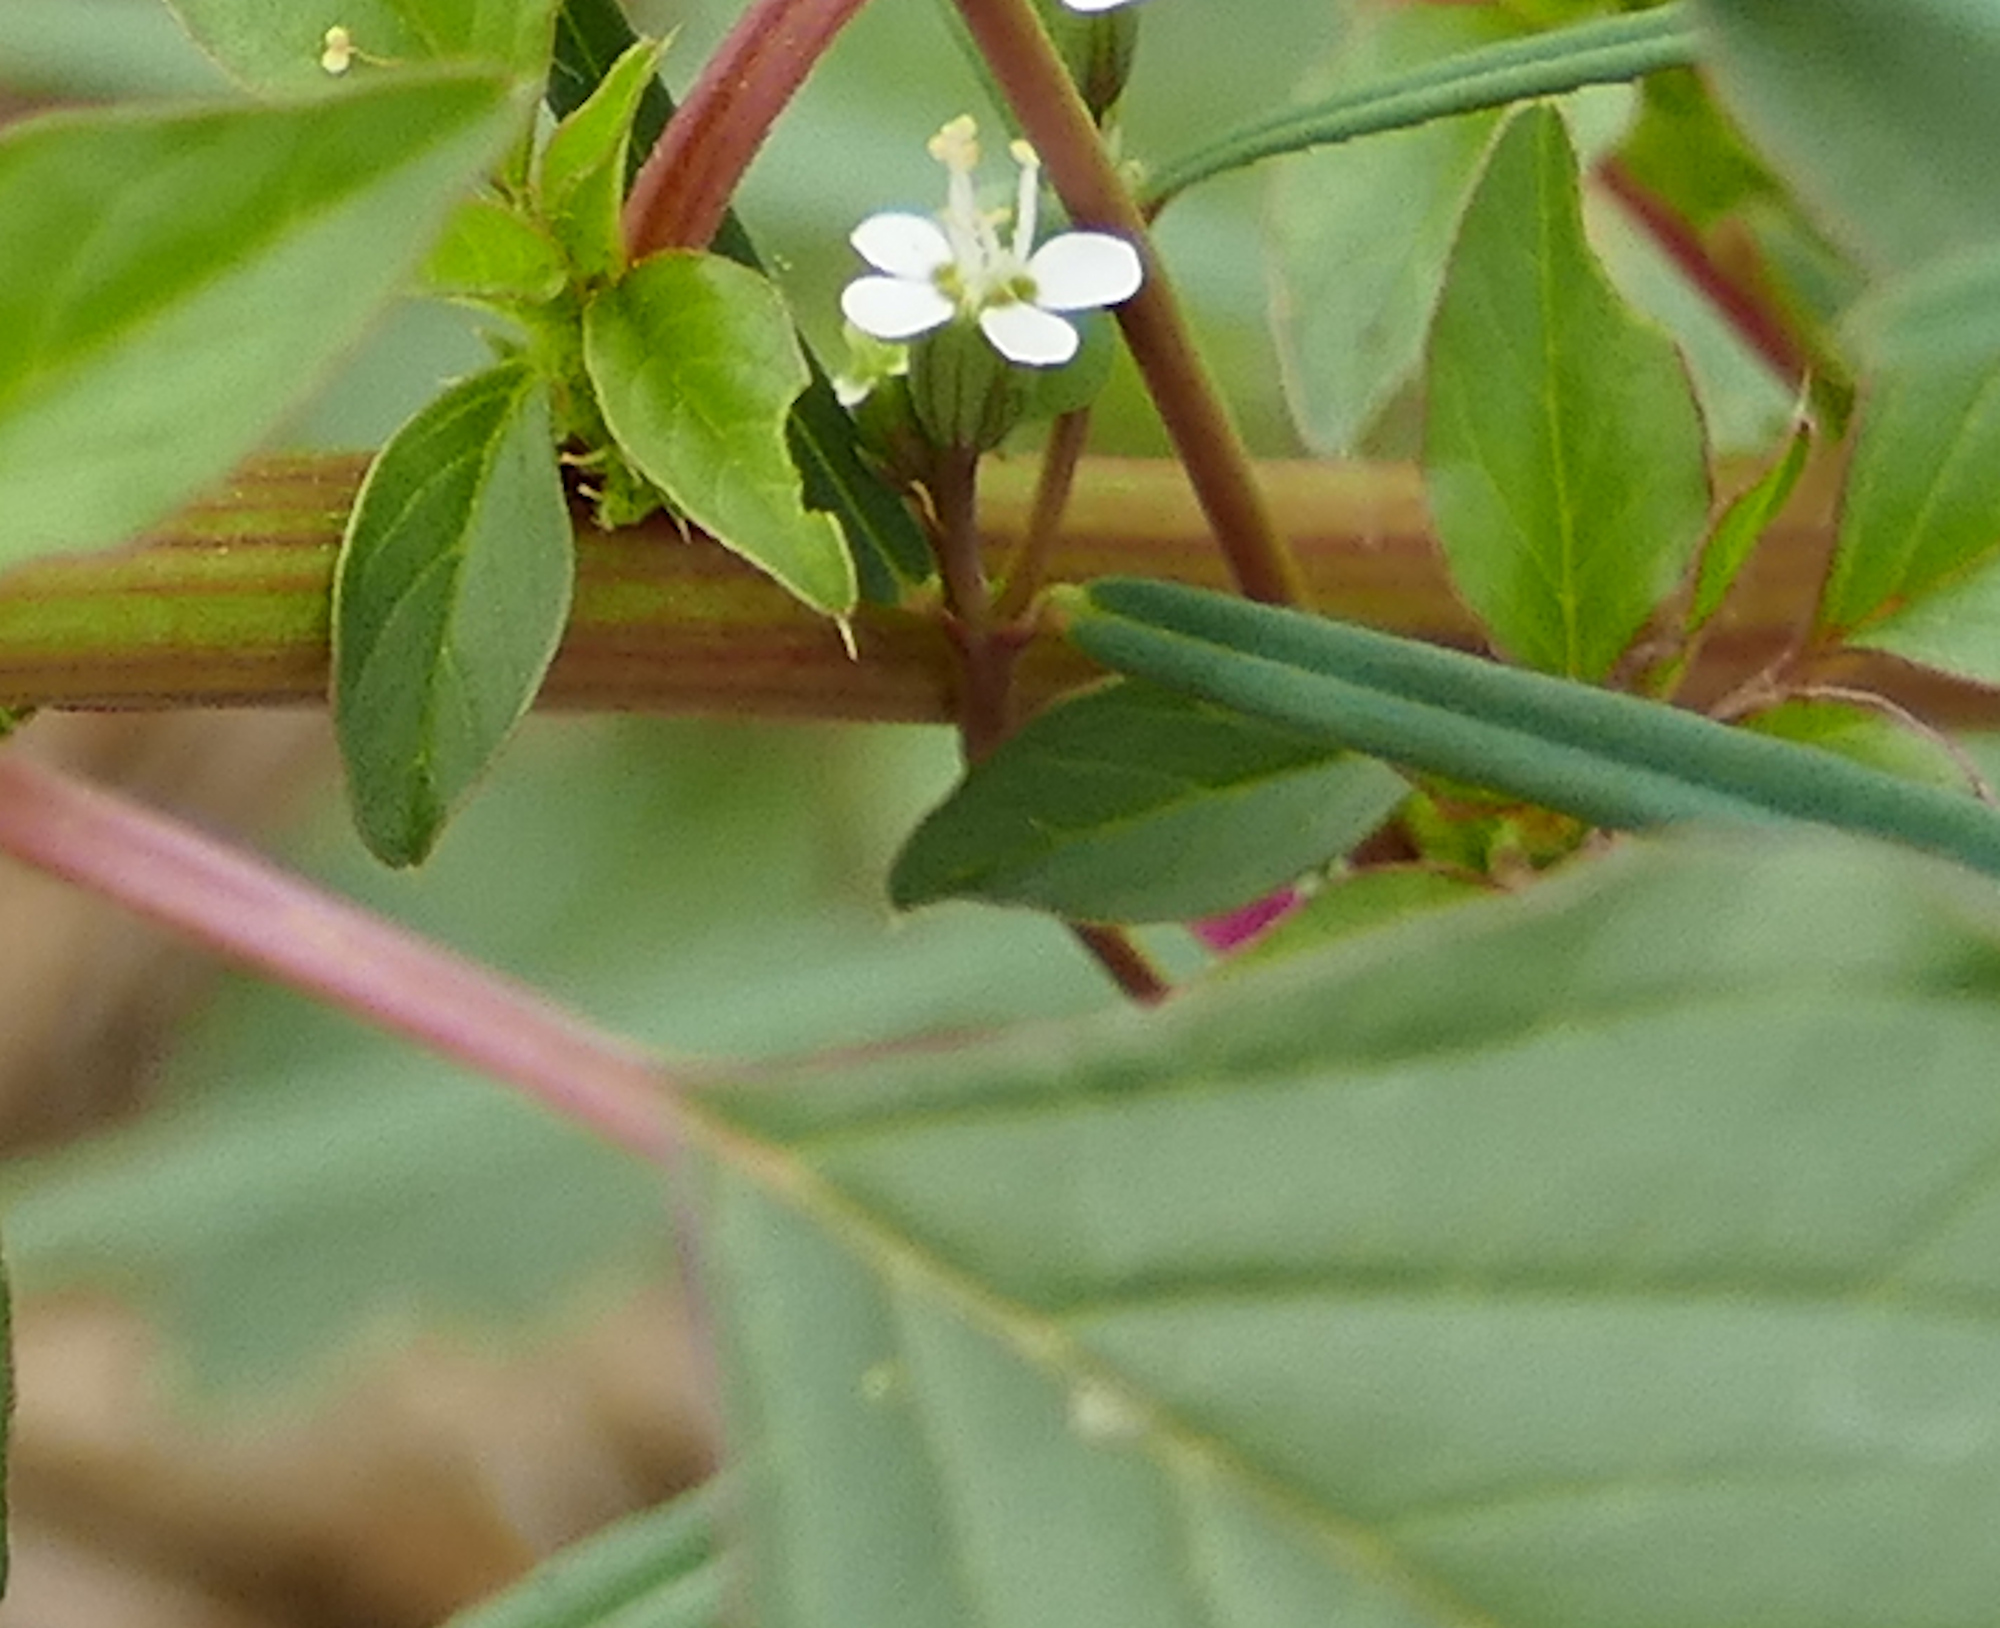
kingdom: Plantae
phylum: Tracheophyta
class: Magnoliopsida
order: Malpighiales
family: Euphorbiaceae
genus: Euphorbia
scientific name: Euphorbia florida
